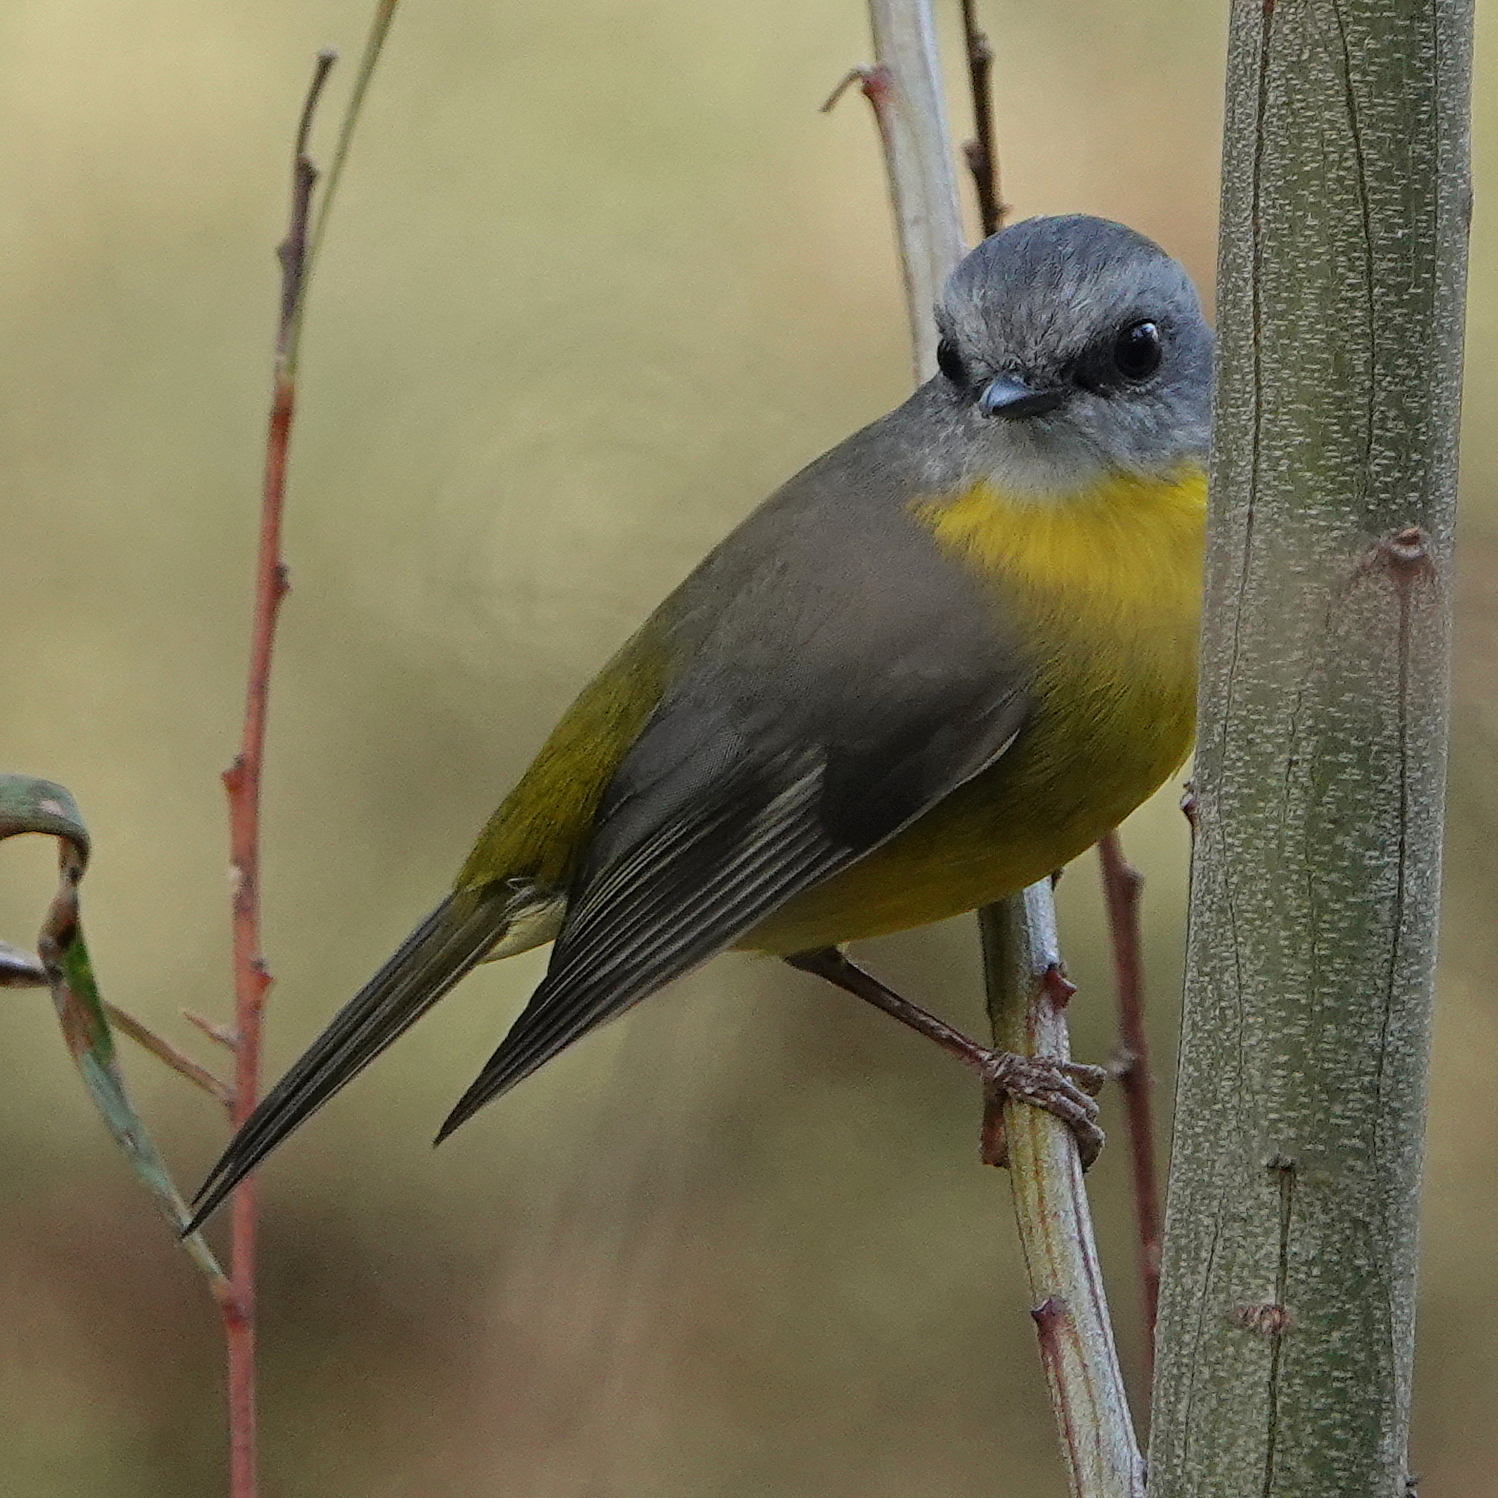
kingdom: Animalia
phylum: Chordata
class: Aves
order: Passeriformes
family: Petroicidae
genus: Eopsaltria
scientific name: Eopsaltria australis
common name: Eastern yellow robin
